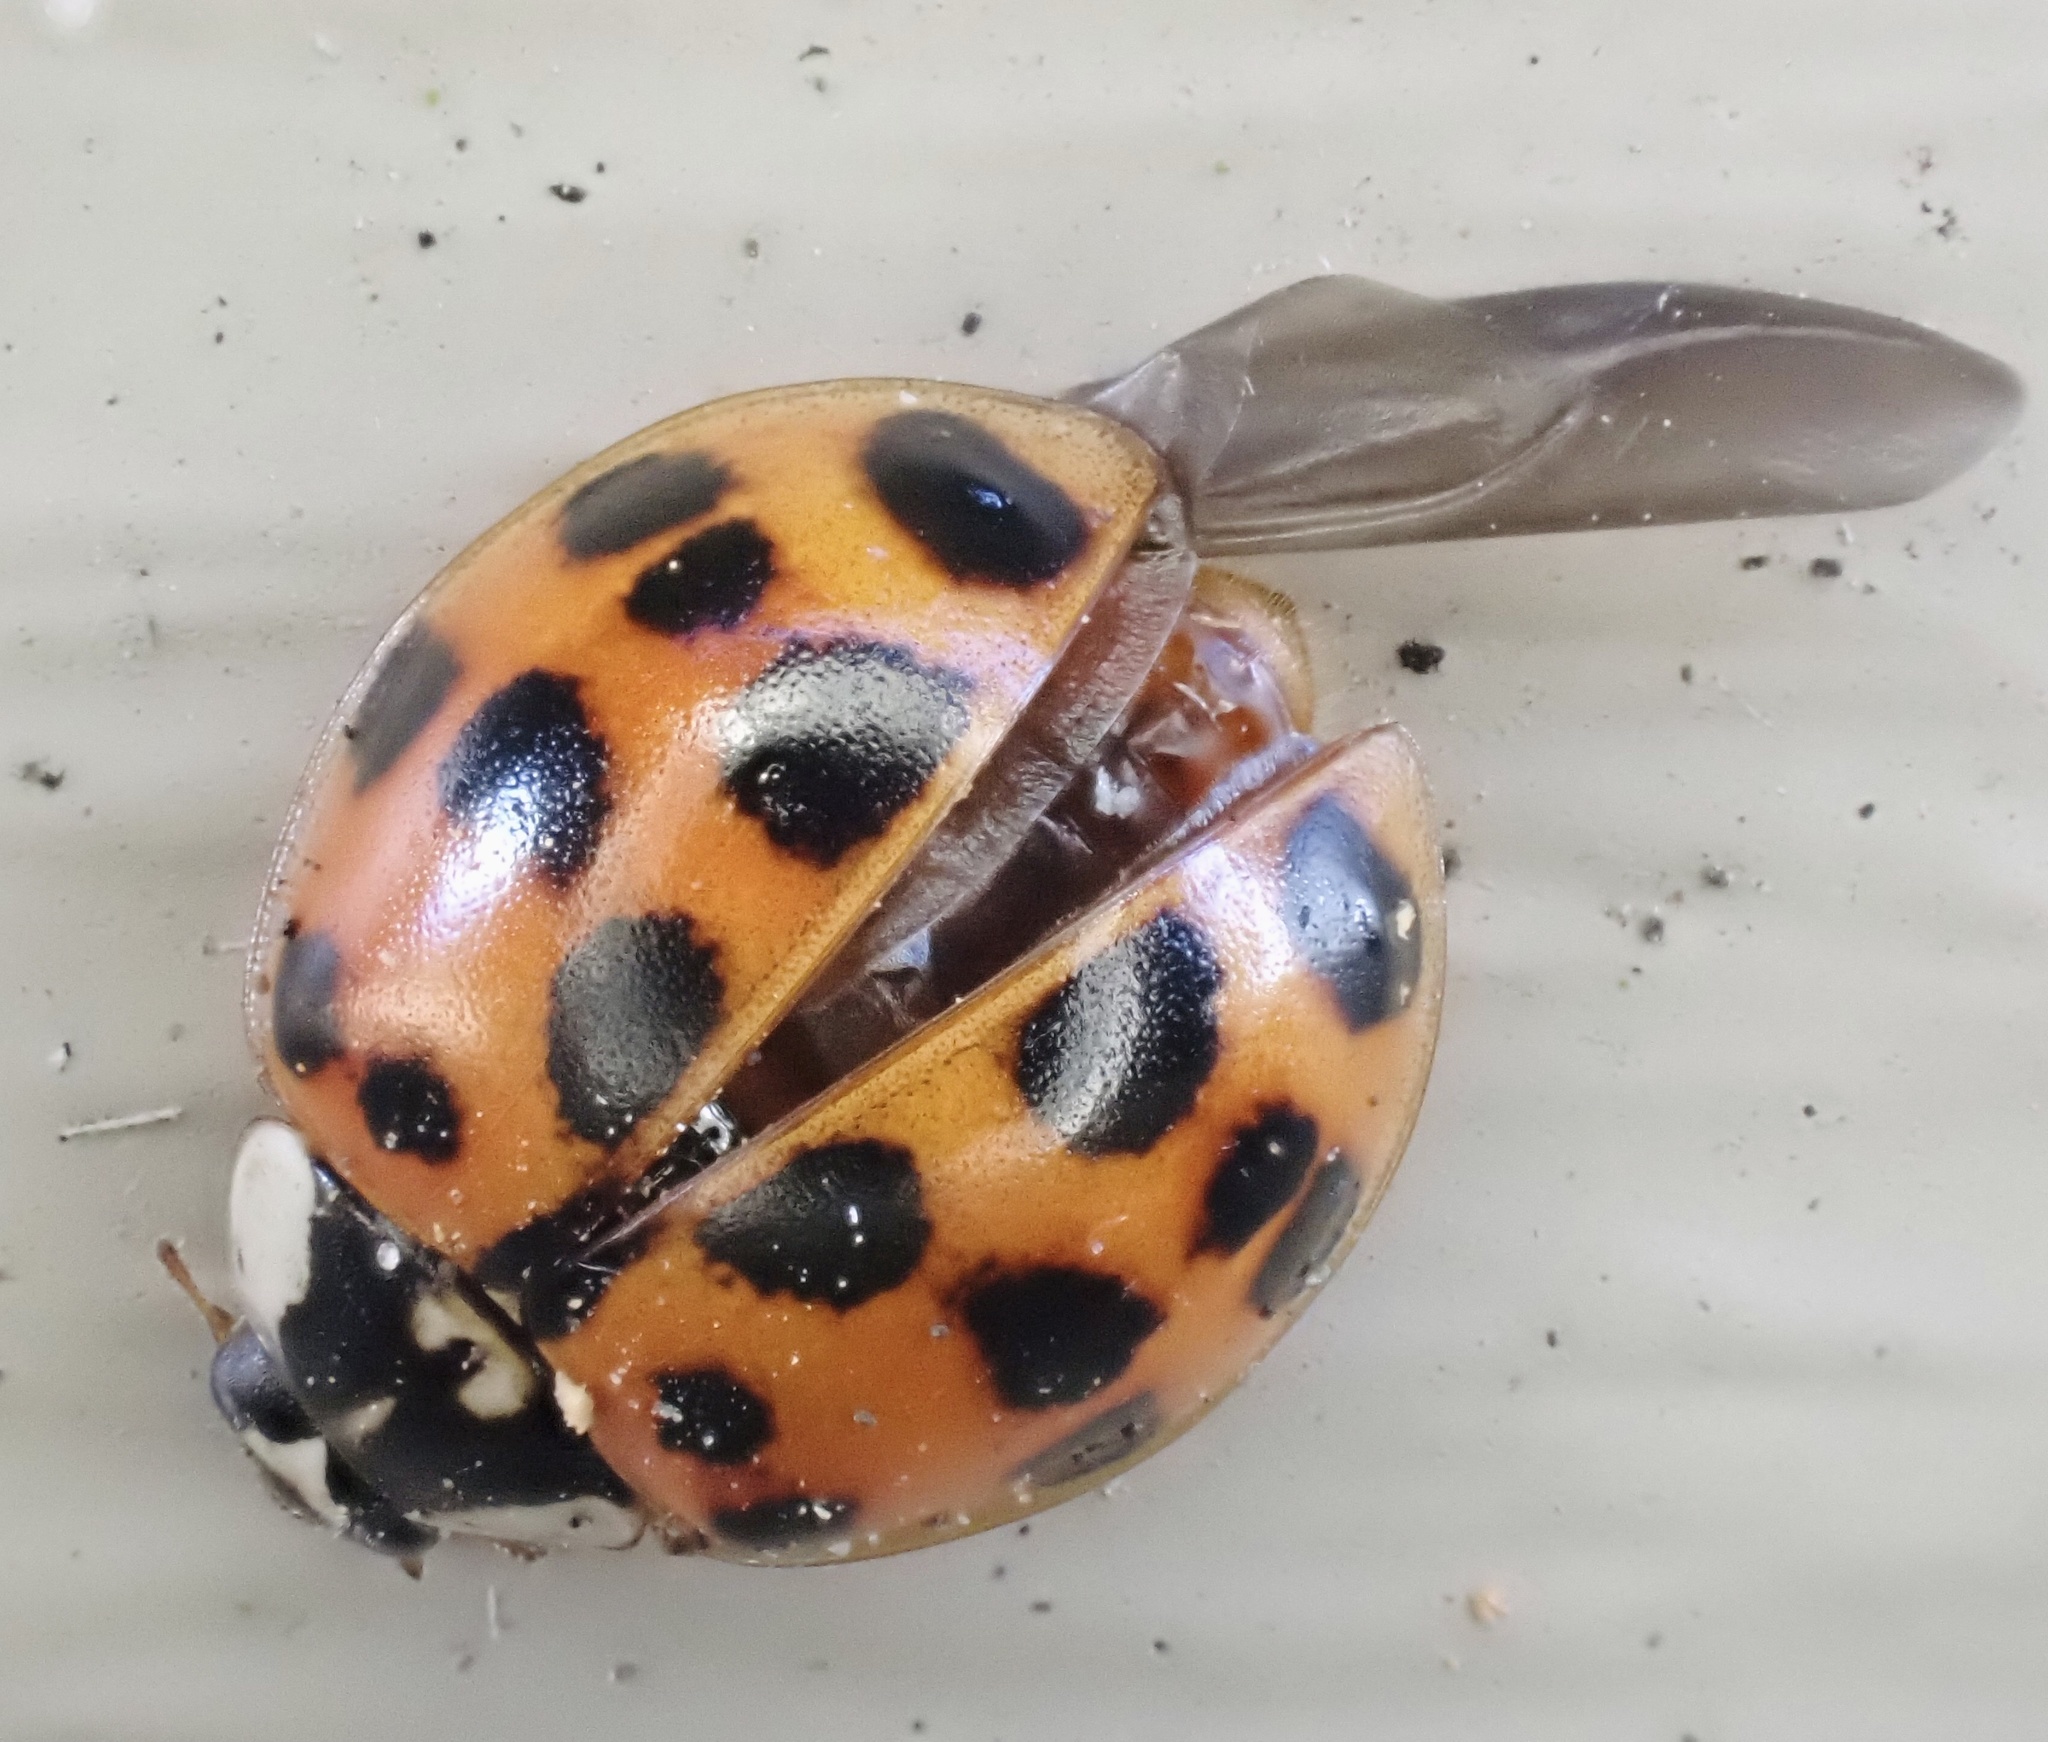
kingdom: Animalia
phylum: Arthropoda
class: Insecta
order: Coleoptera
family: Coccinellidae
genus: Harmonia
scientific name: Harmonia axyridis
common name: Harlequin ladybird
